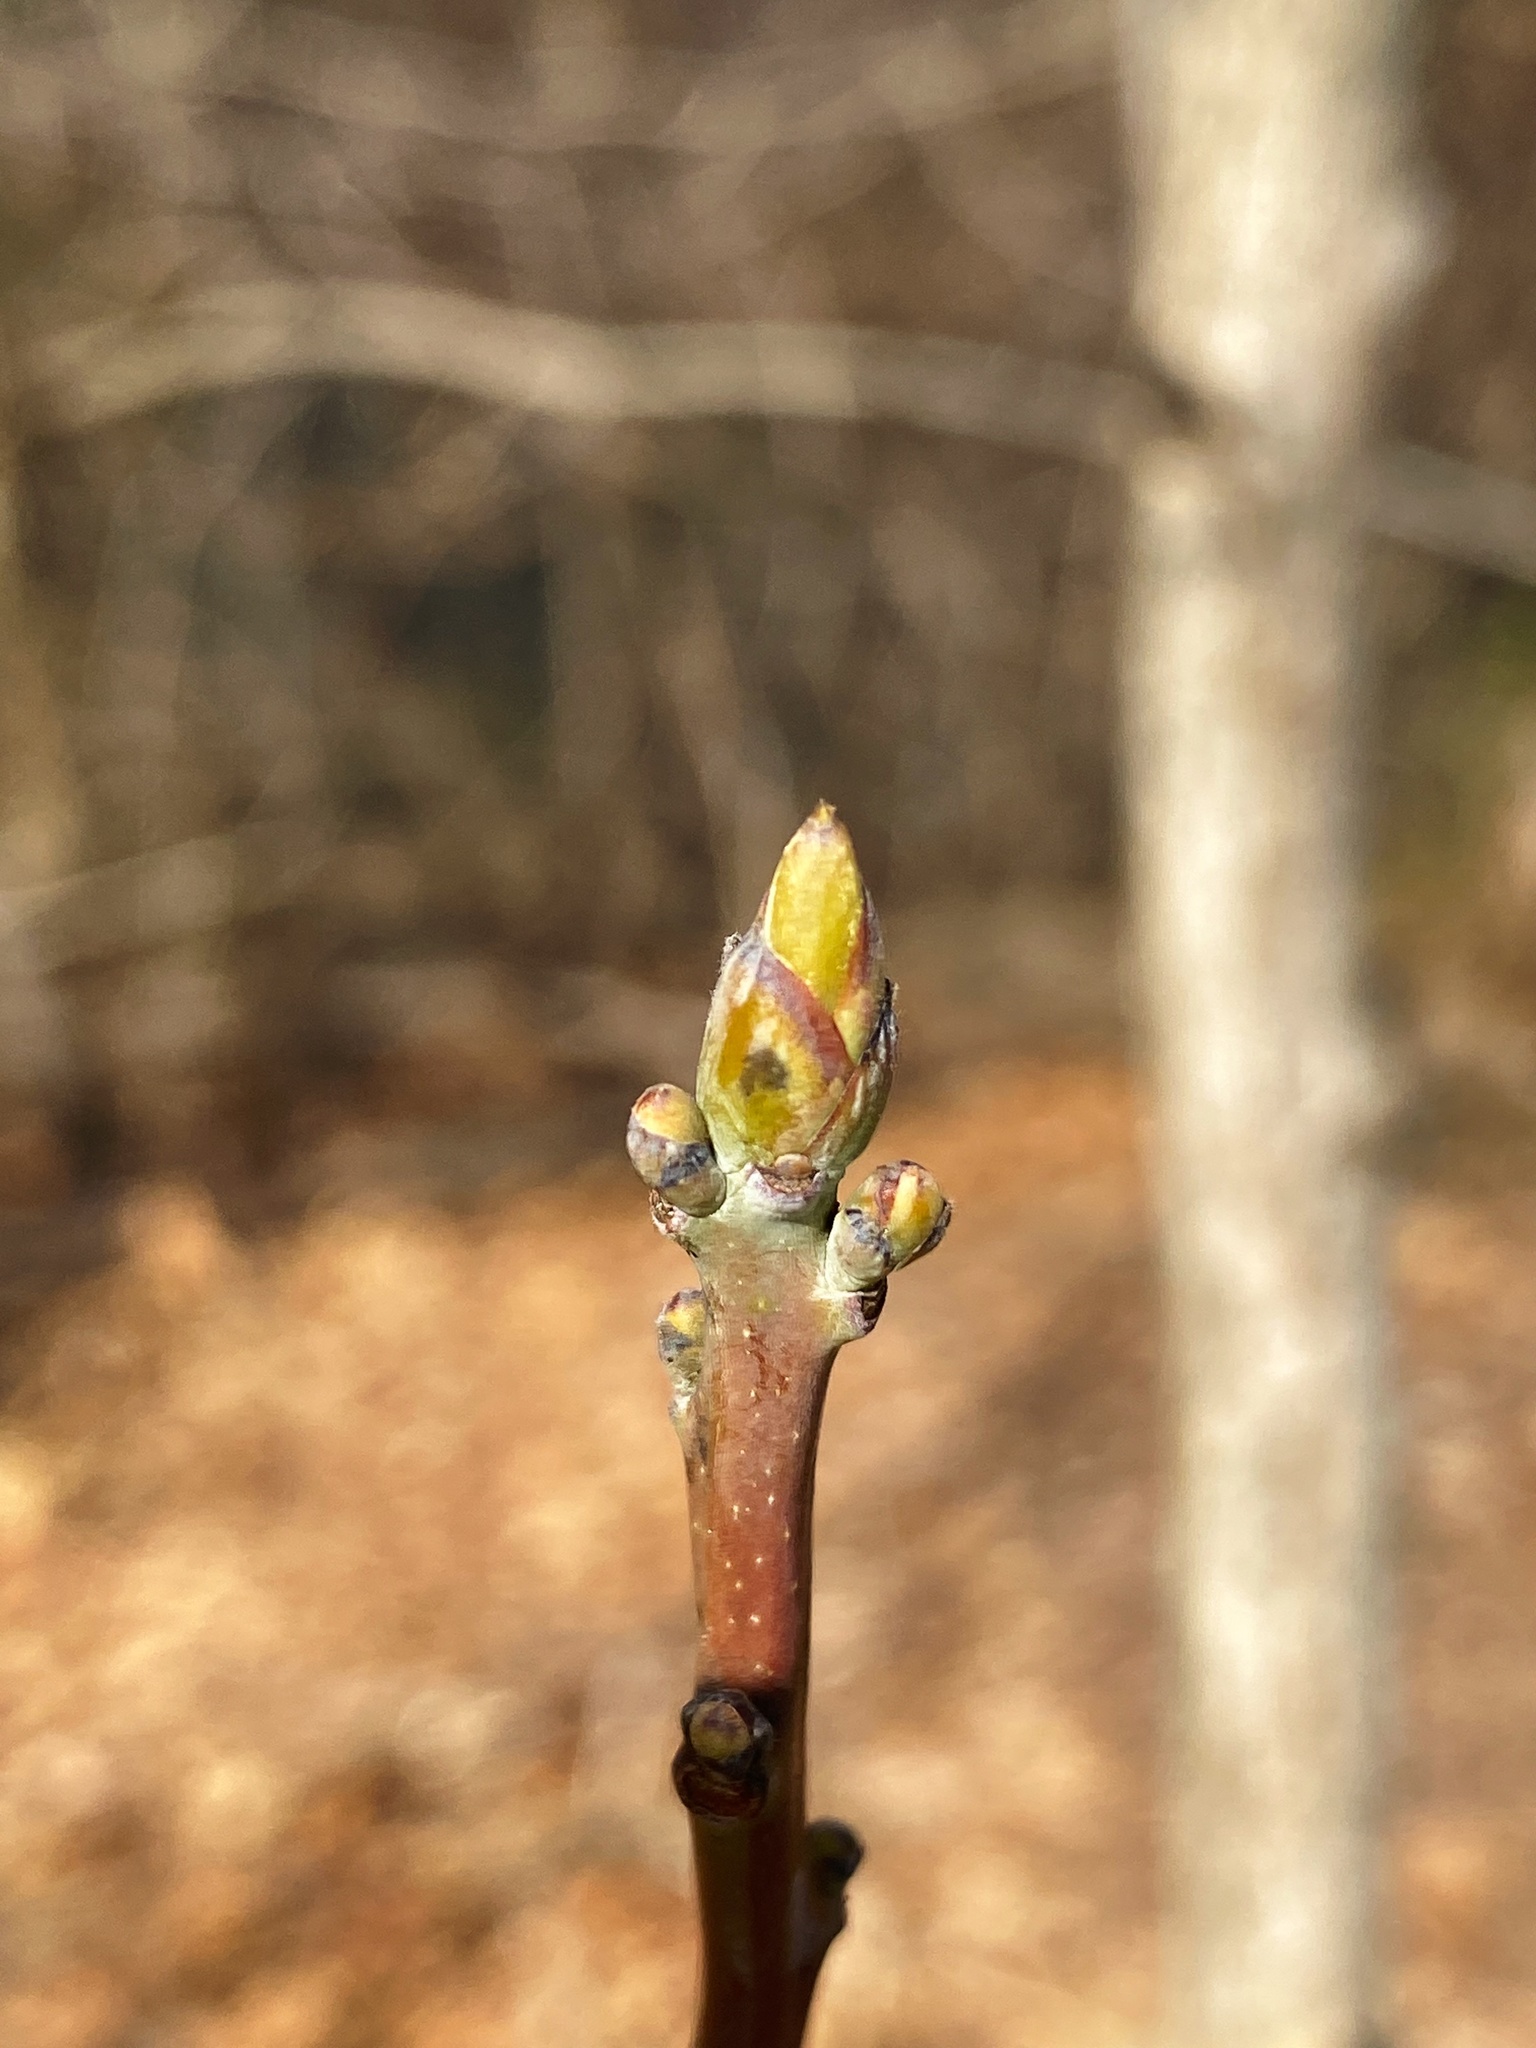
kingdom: Plantae
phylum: Tracheophyta
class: Magnoliopsida
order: Laurales
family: Lauraceae
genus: Sassafras
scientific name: Sassafras albidum
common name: Sassafras
